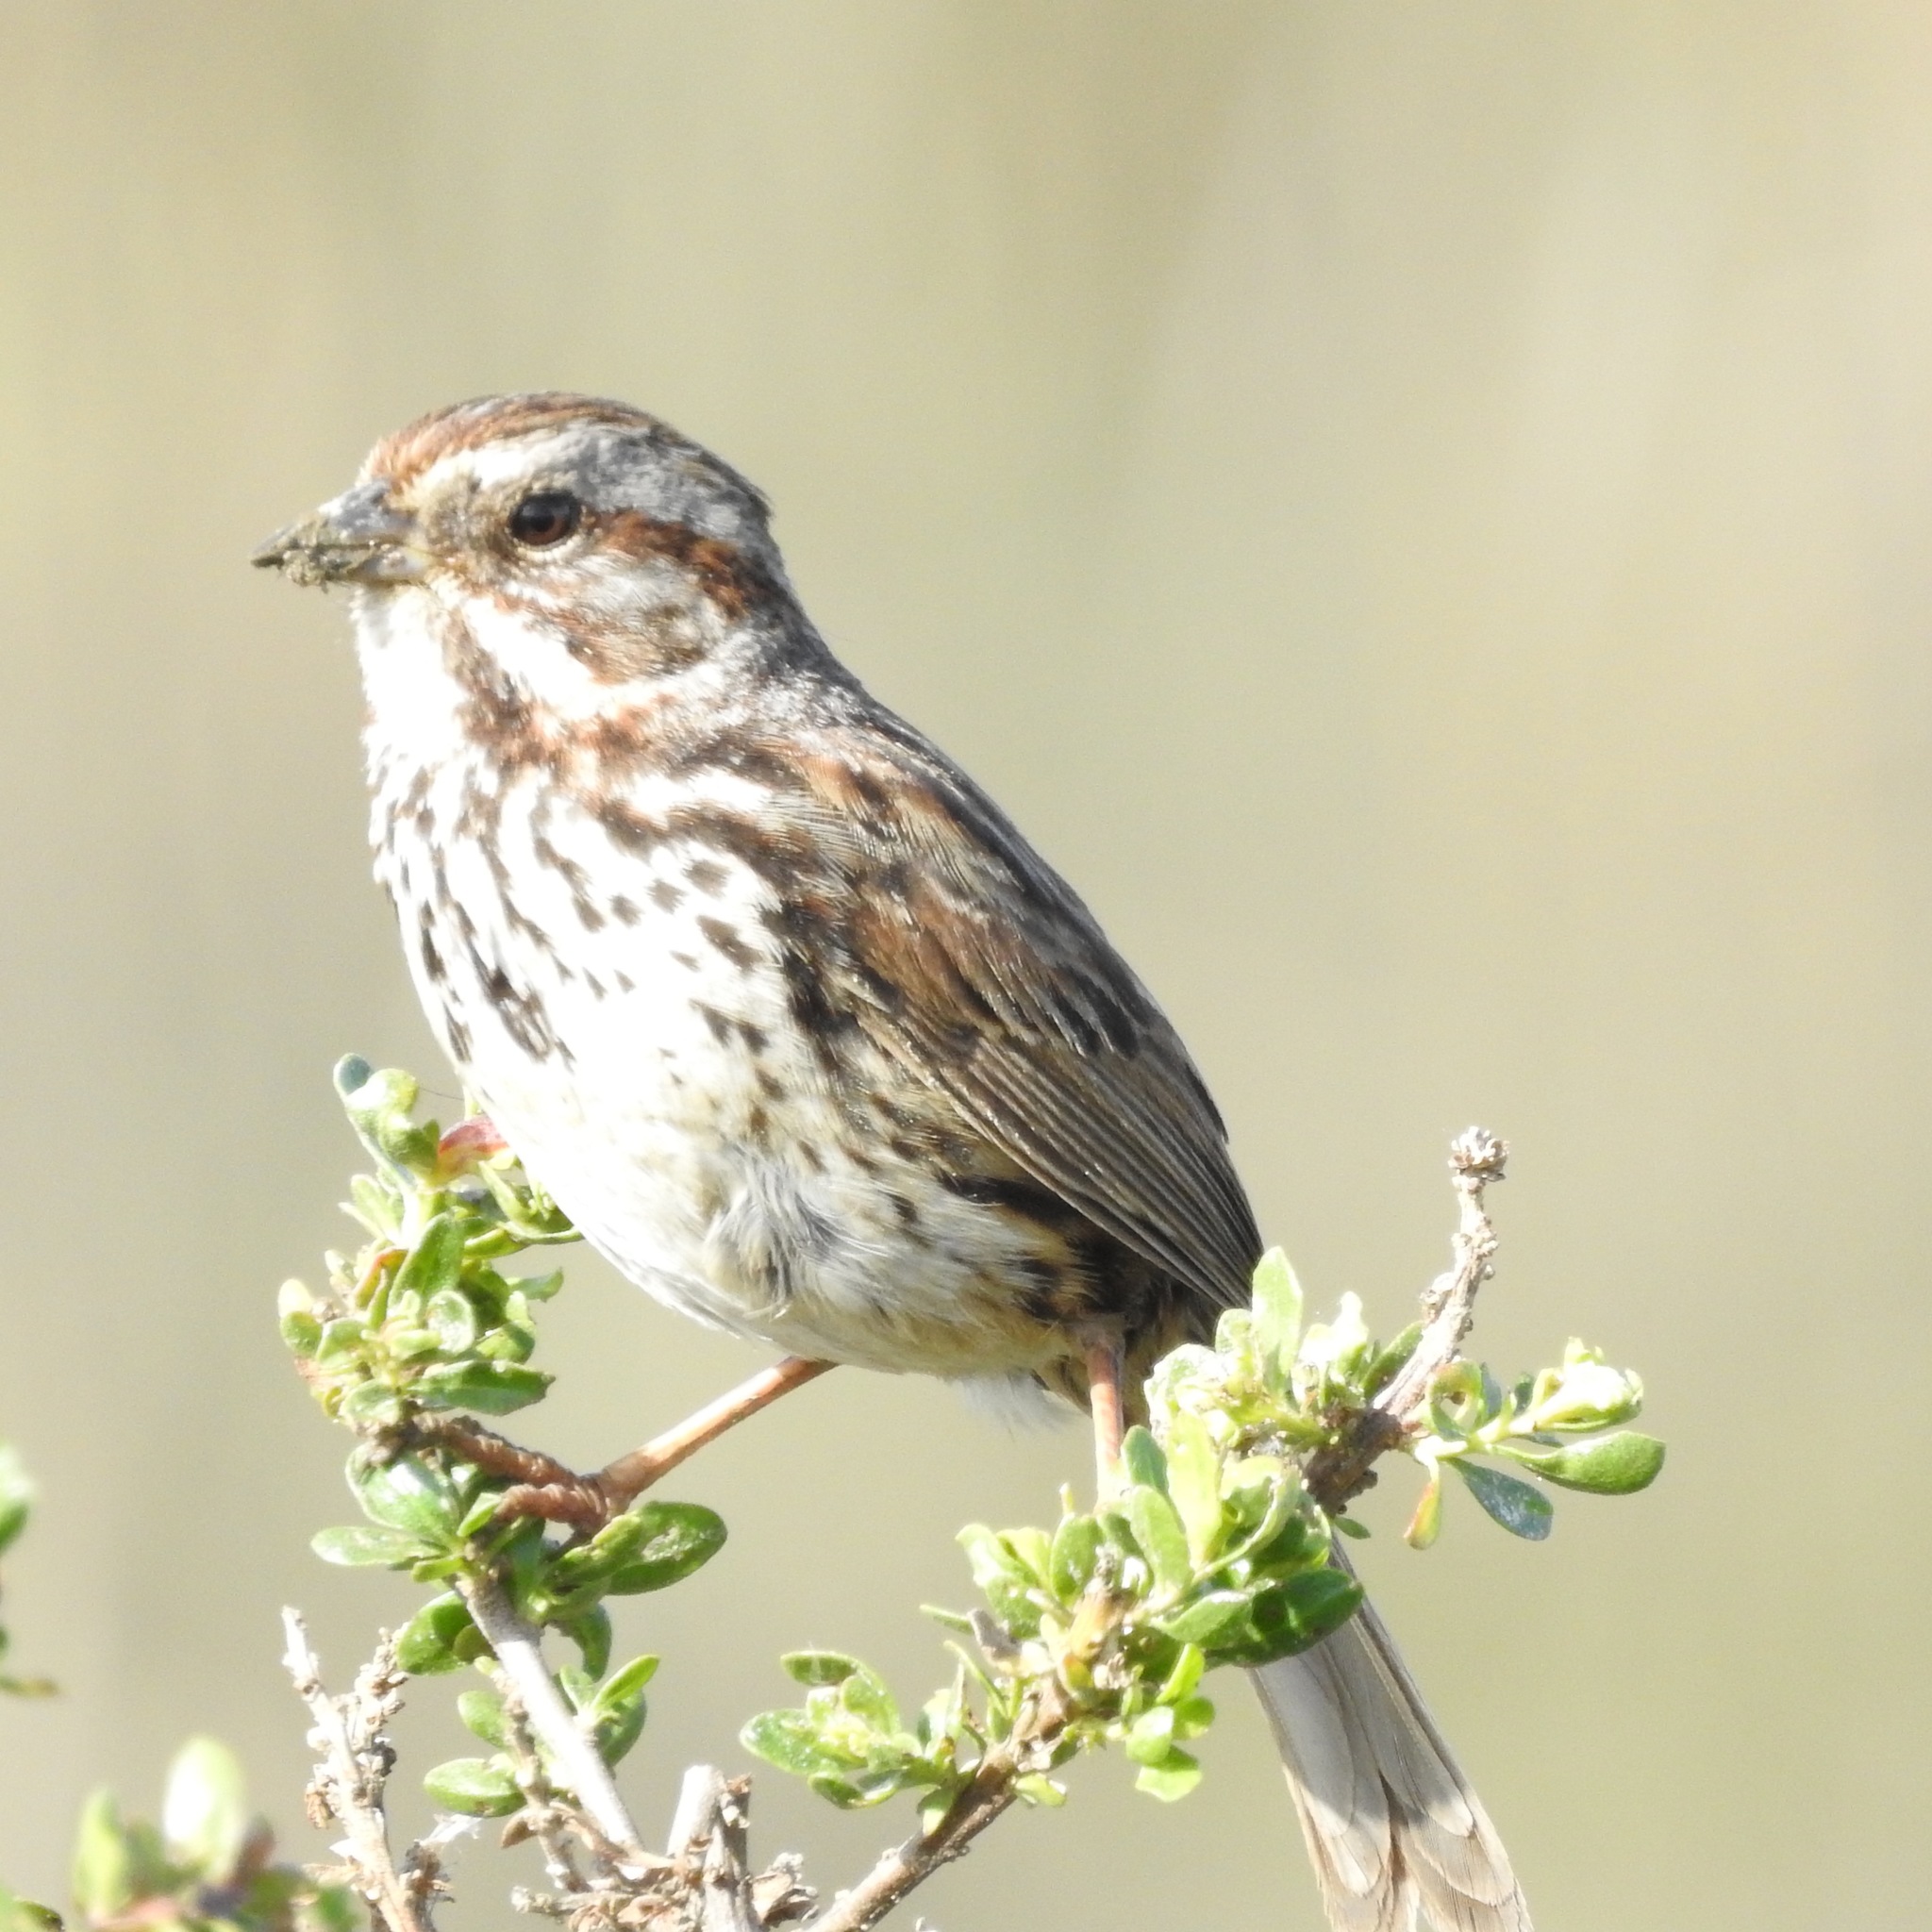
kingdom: Animalia
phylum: Chordata
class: Aves
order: Passeriformes
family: Passerellidae
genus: Melospiza
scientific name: Melospiza melodia
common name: Song sparrow
